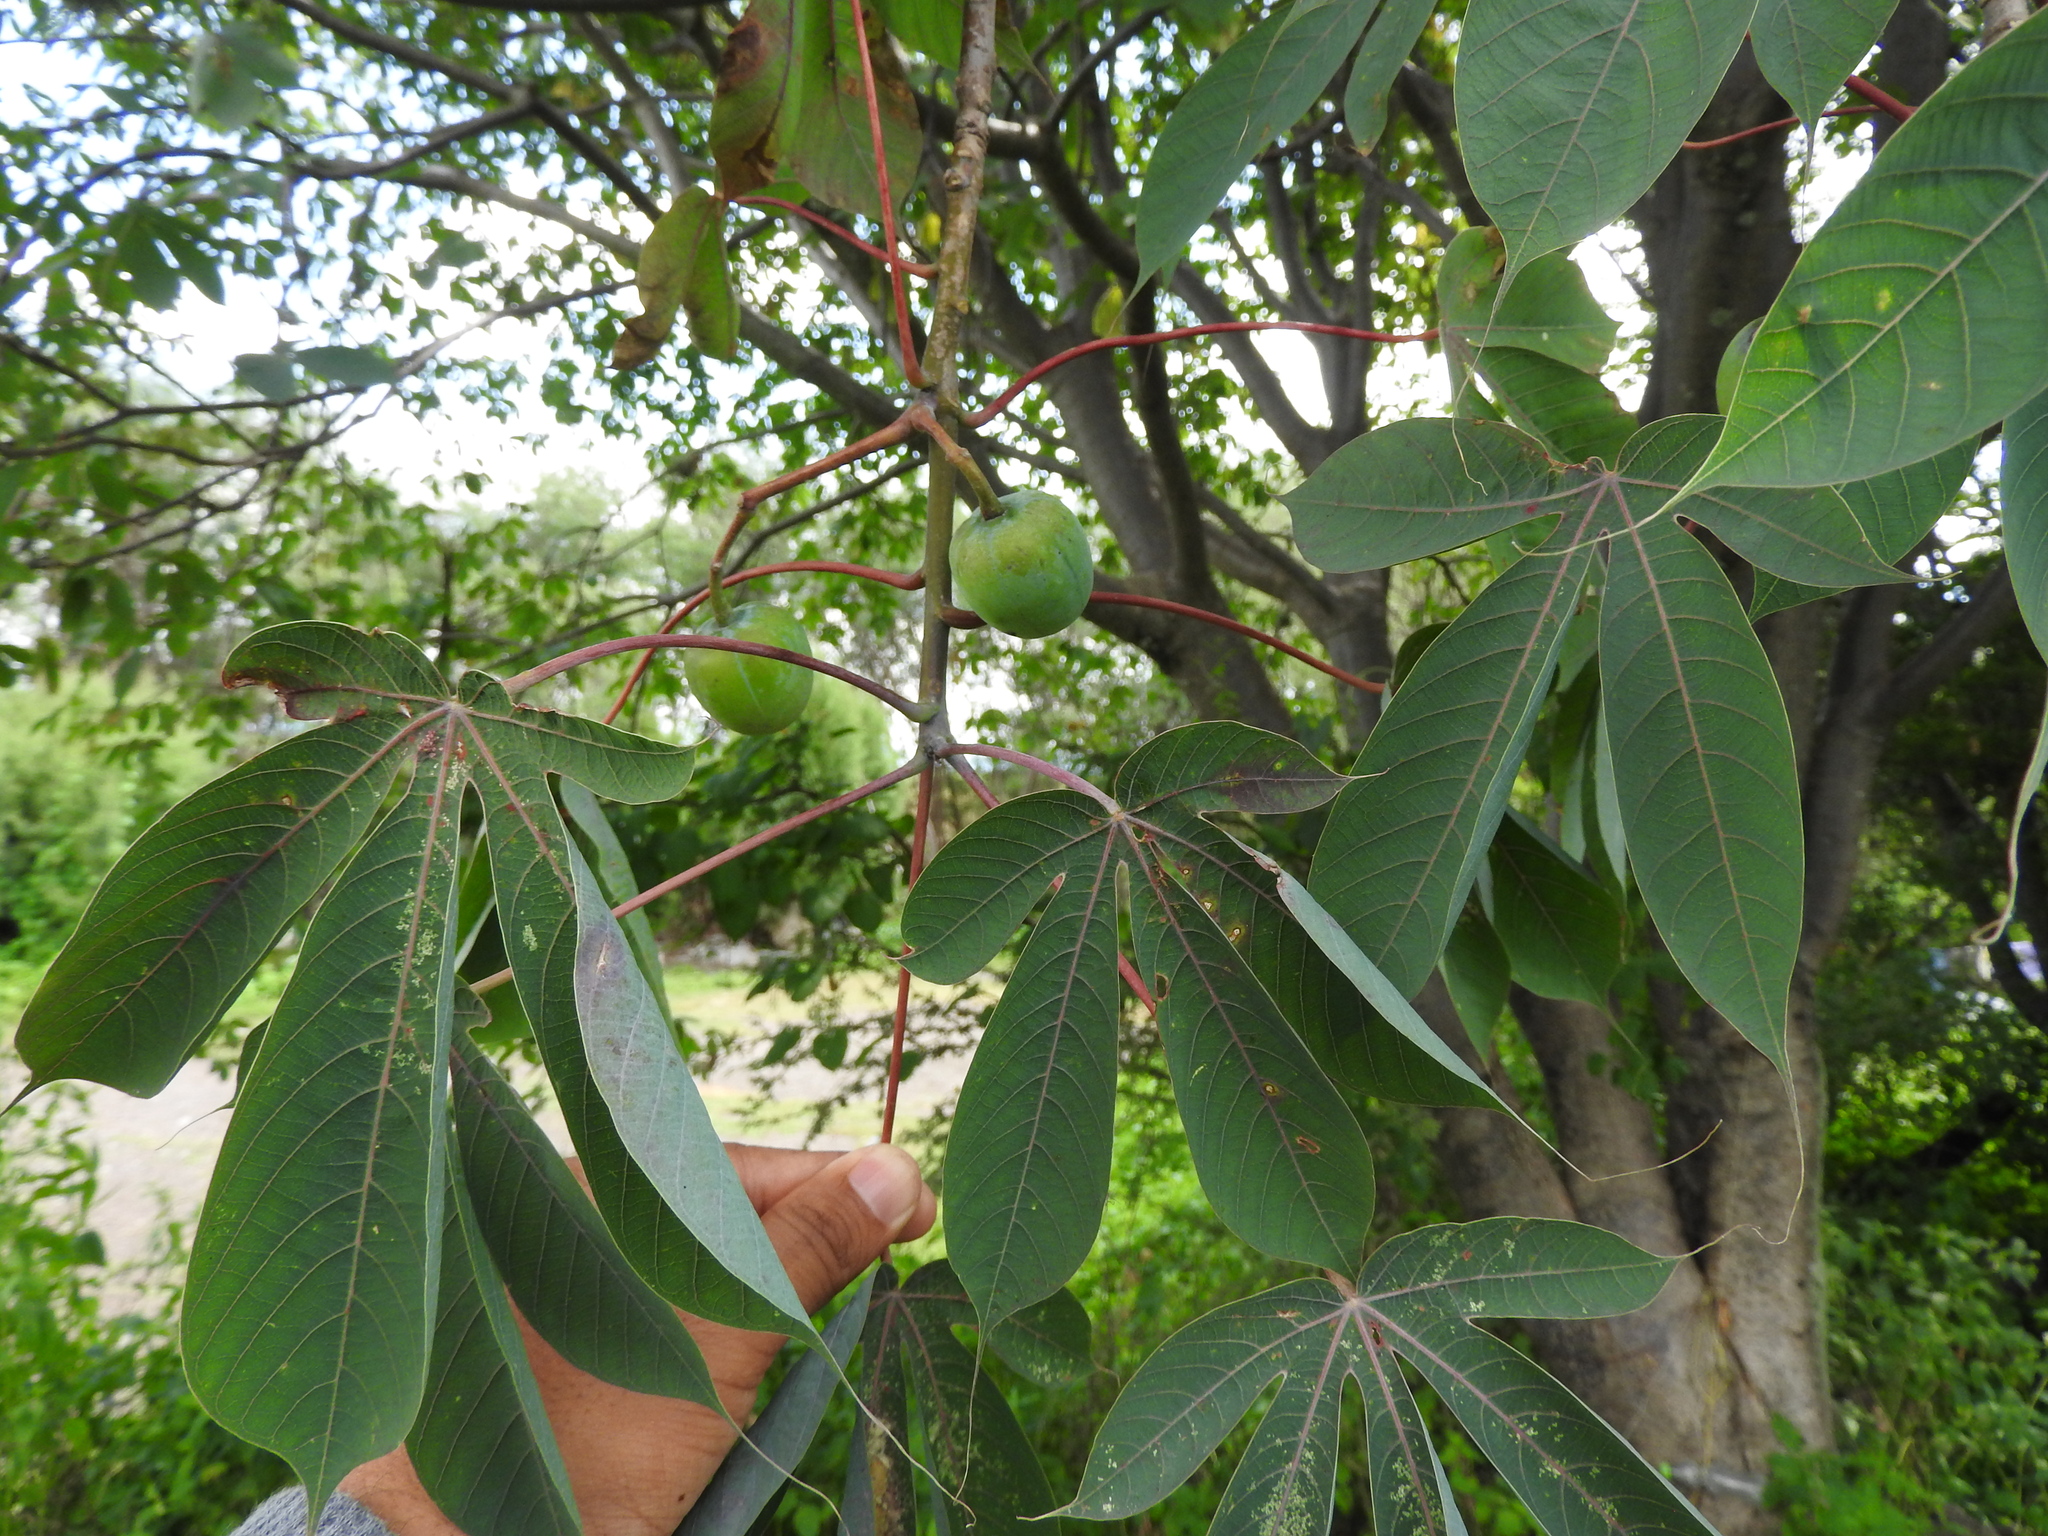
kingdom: Plantae
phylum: Tracheophyta
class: Magnoliopsida
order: Malpighiales
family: Euphorbiaceae
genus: Manihot
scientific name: Manihot caudata
